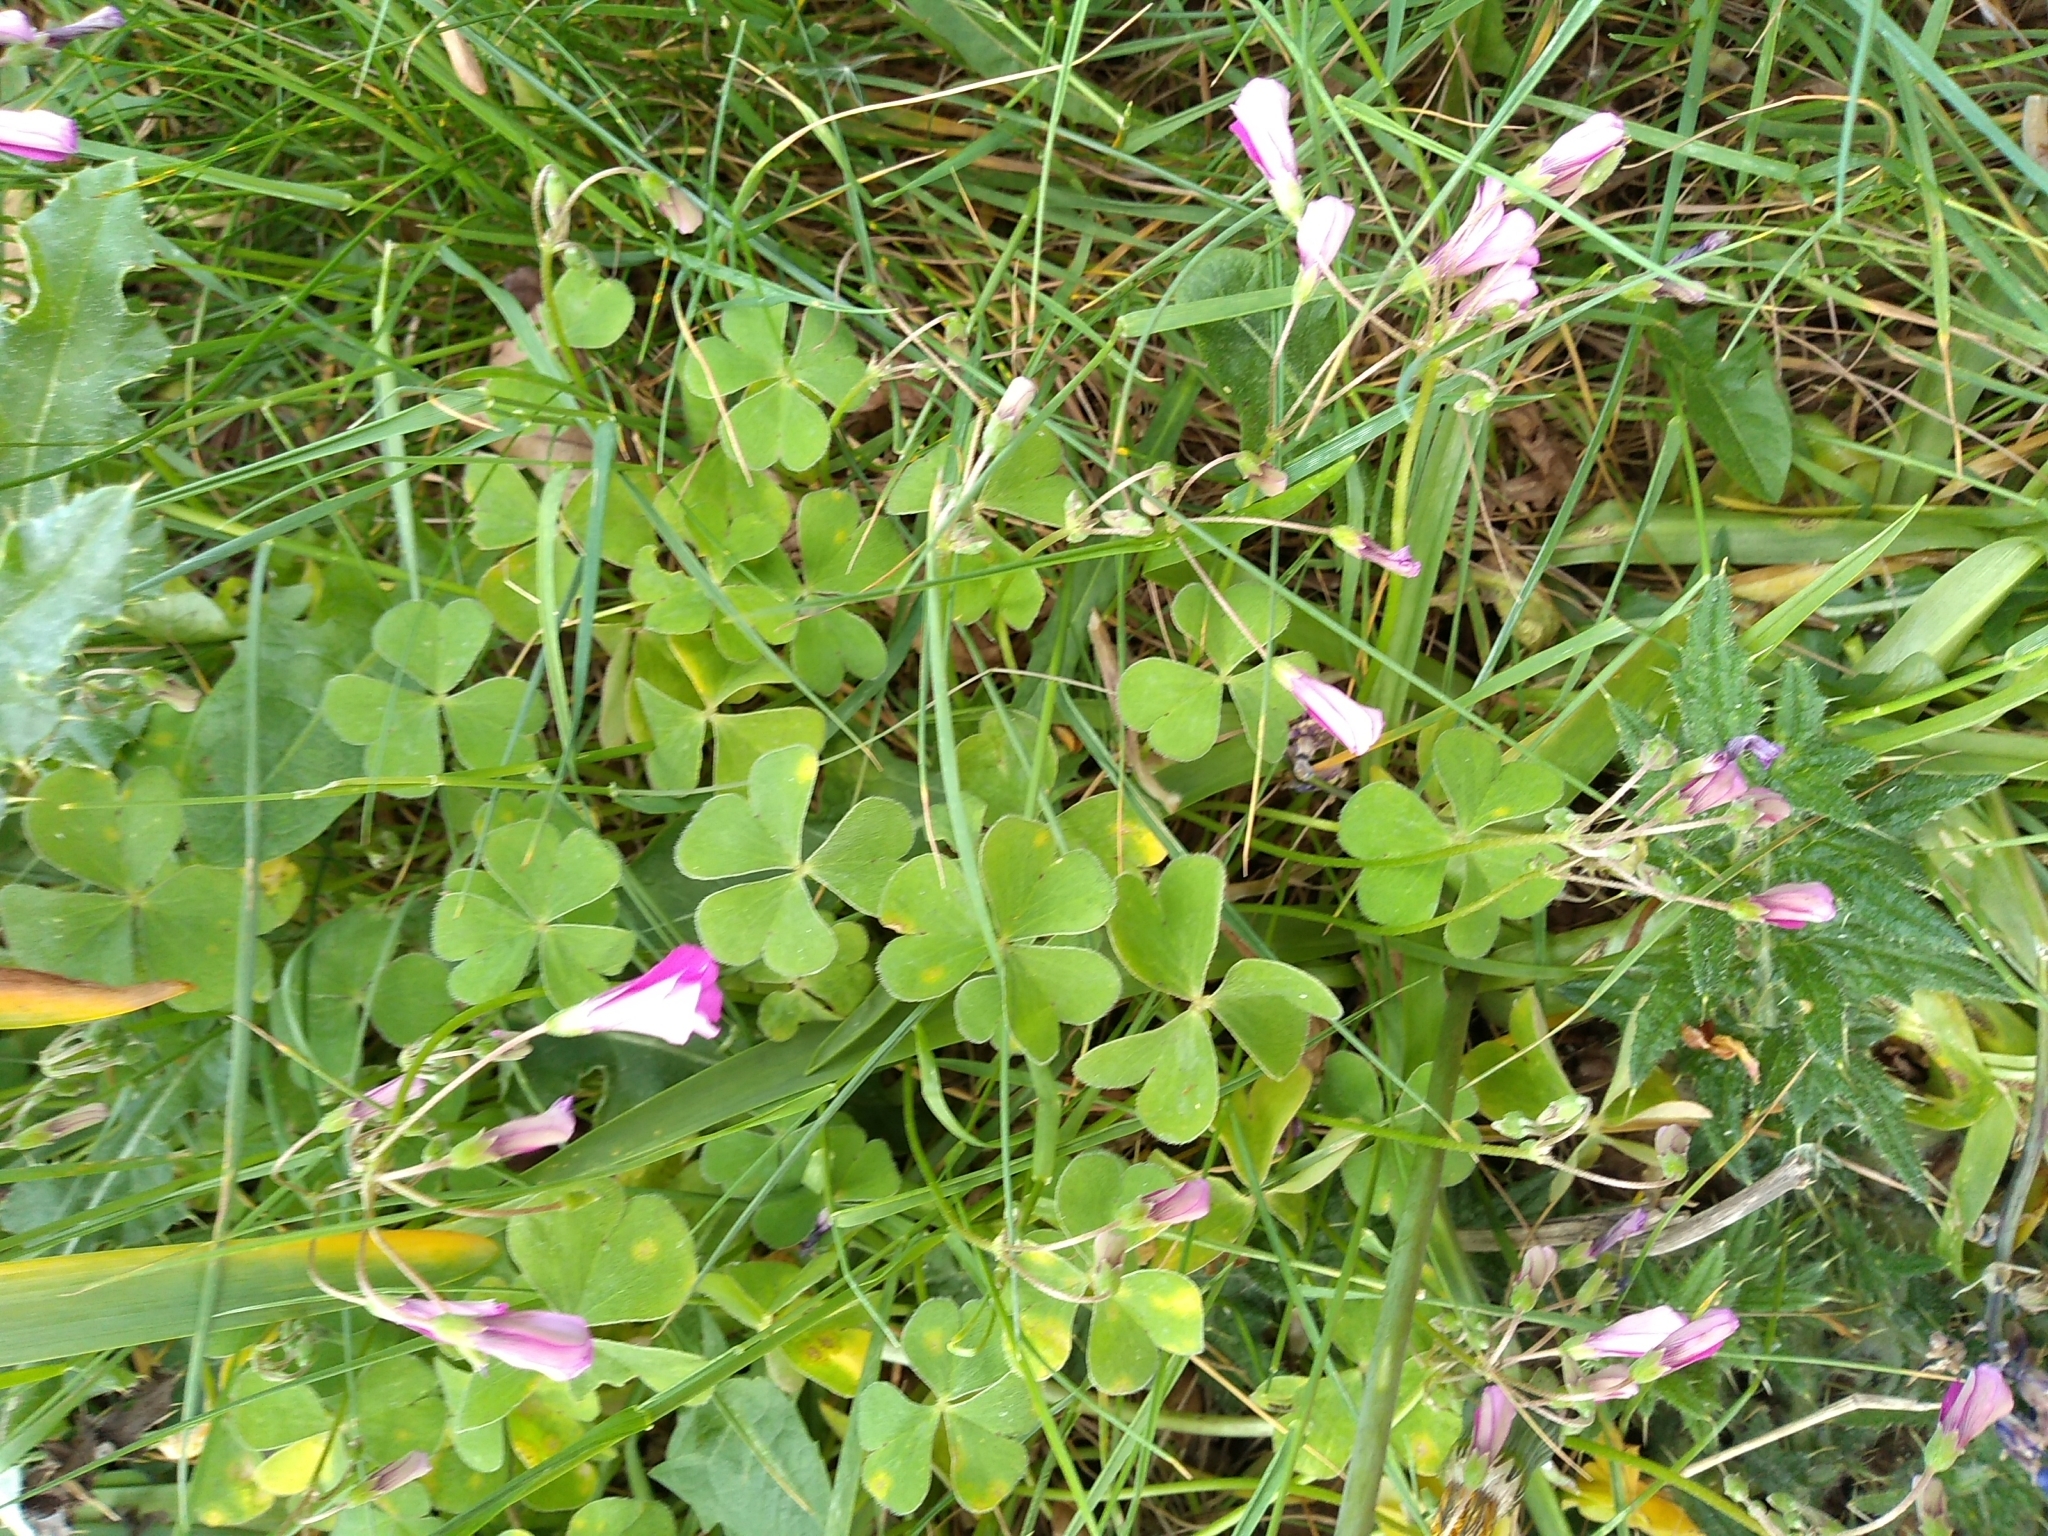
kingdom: Plantae
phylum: Tracheophyta
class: Magnoliopsida
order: Oxalidales
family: Oxalidaceae
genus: Oxalis
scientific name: Oxalis articulata
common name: Pink-sorrel
